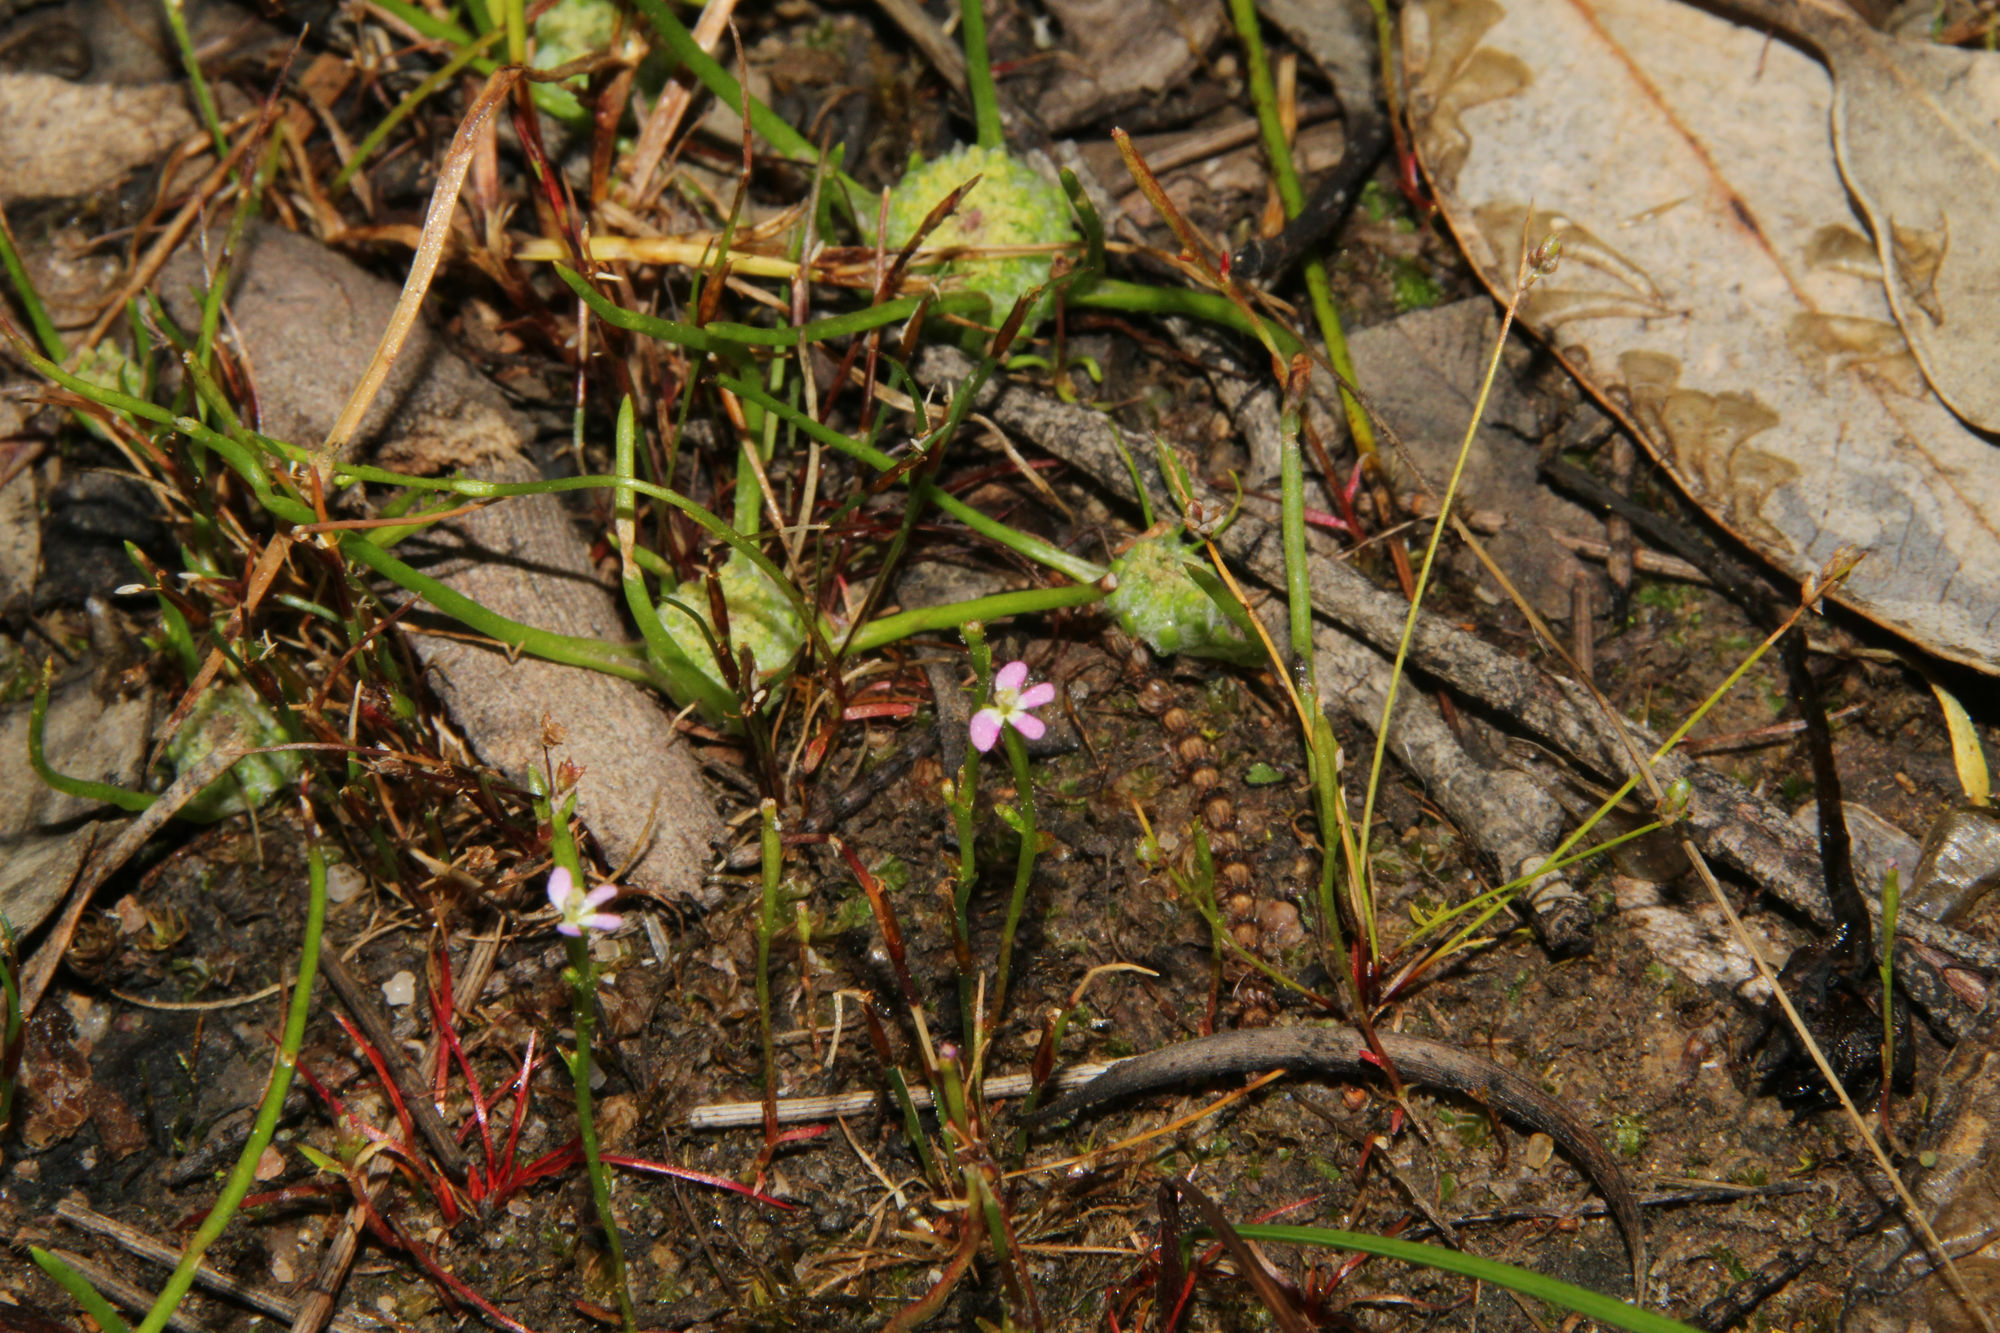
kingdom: Plantae
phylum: Tracheophyta
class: Magnoliopsida
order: Asterales
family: Stylidiaceae
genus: Stylidium
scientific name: Stylidium despectum
